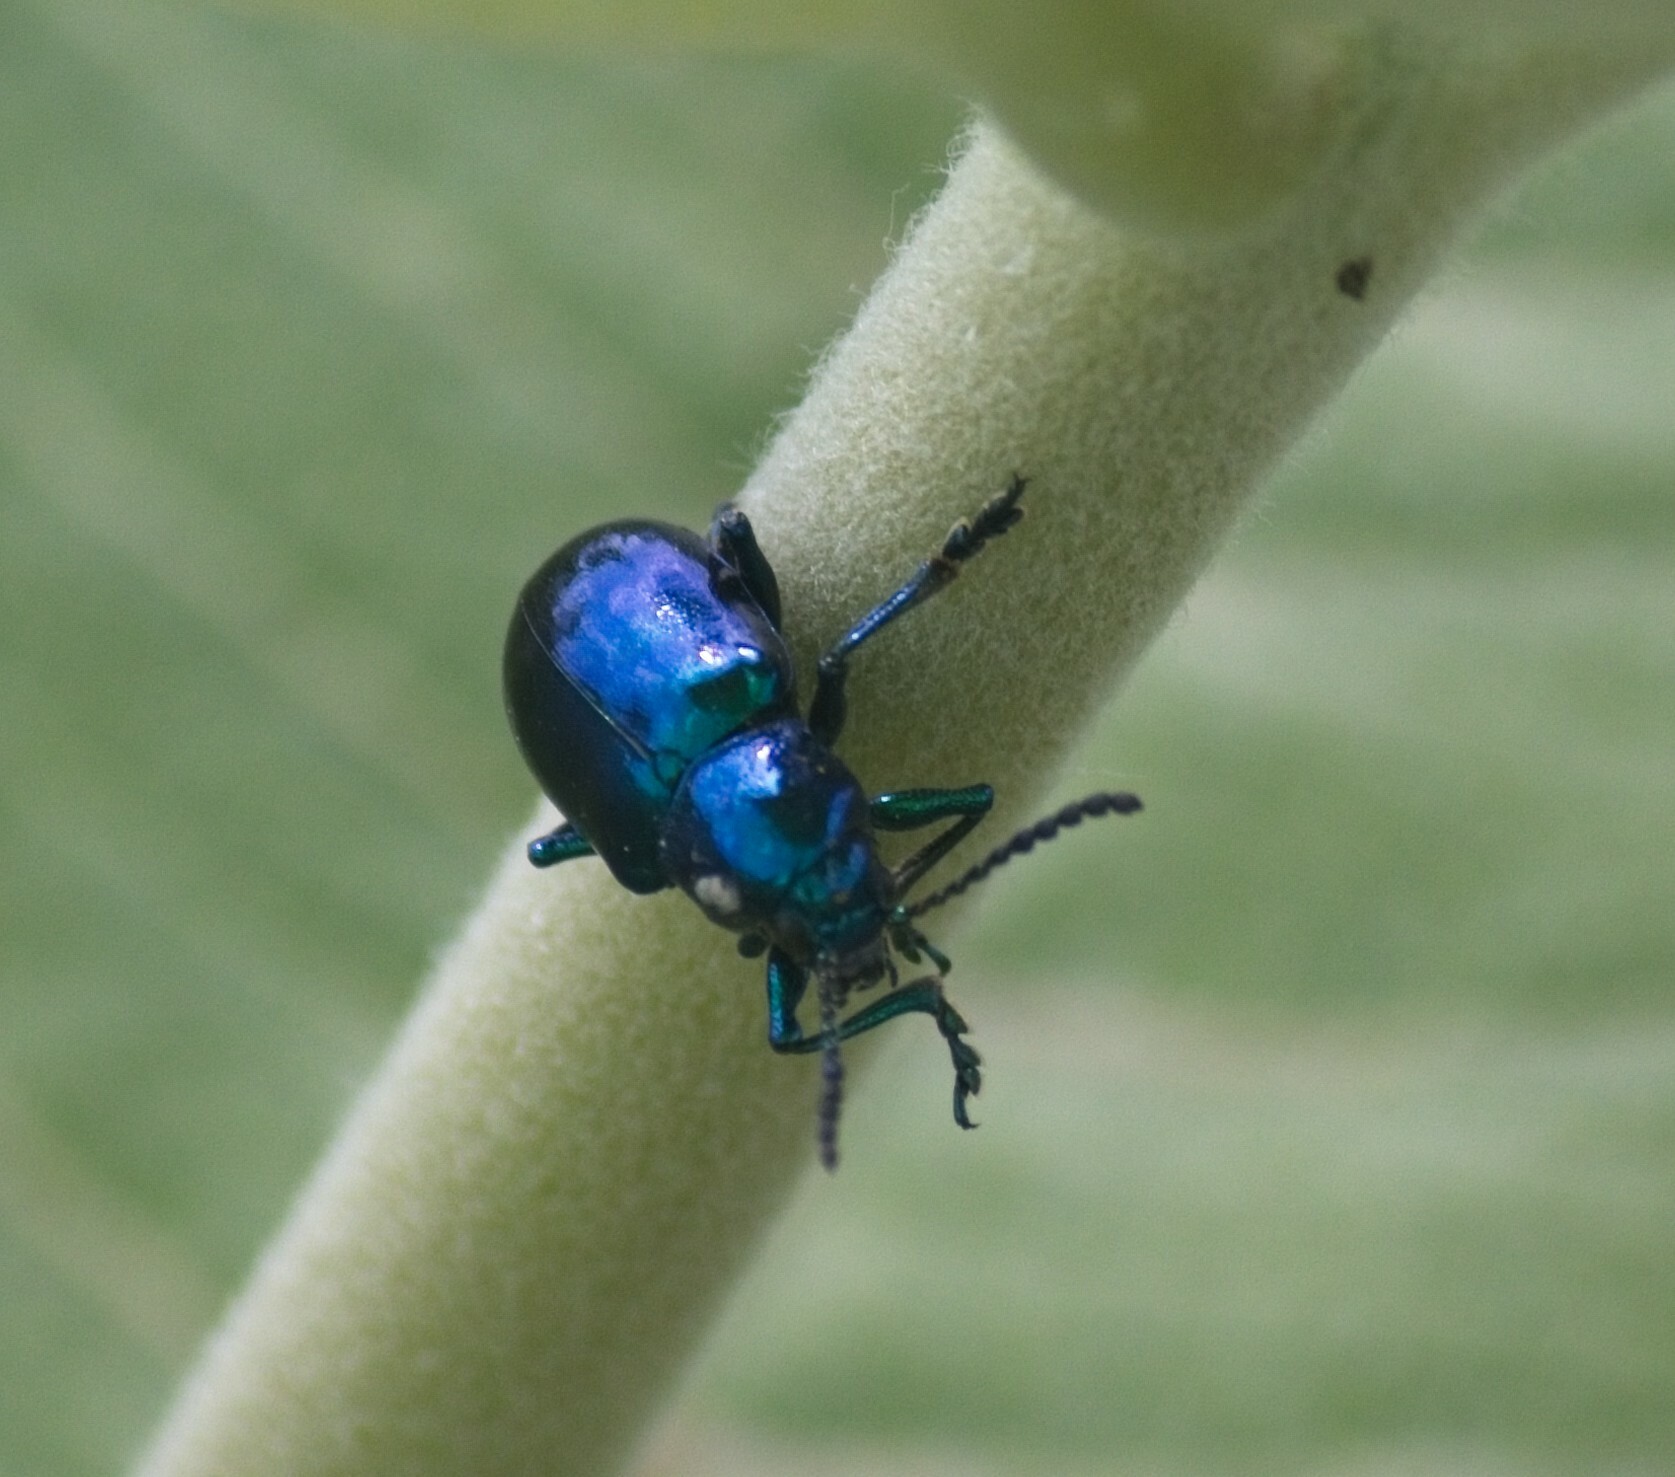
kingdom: Animalia
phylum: Arthropoda
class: Insecta
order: Coleoptera
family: Chrysomelidae
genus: Chrysochus
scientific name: Chrysochus cobaltinus
